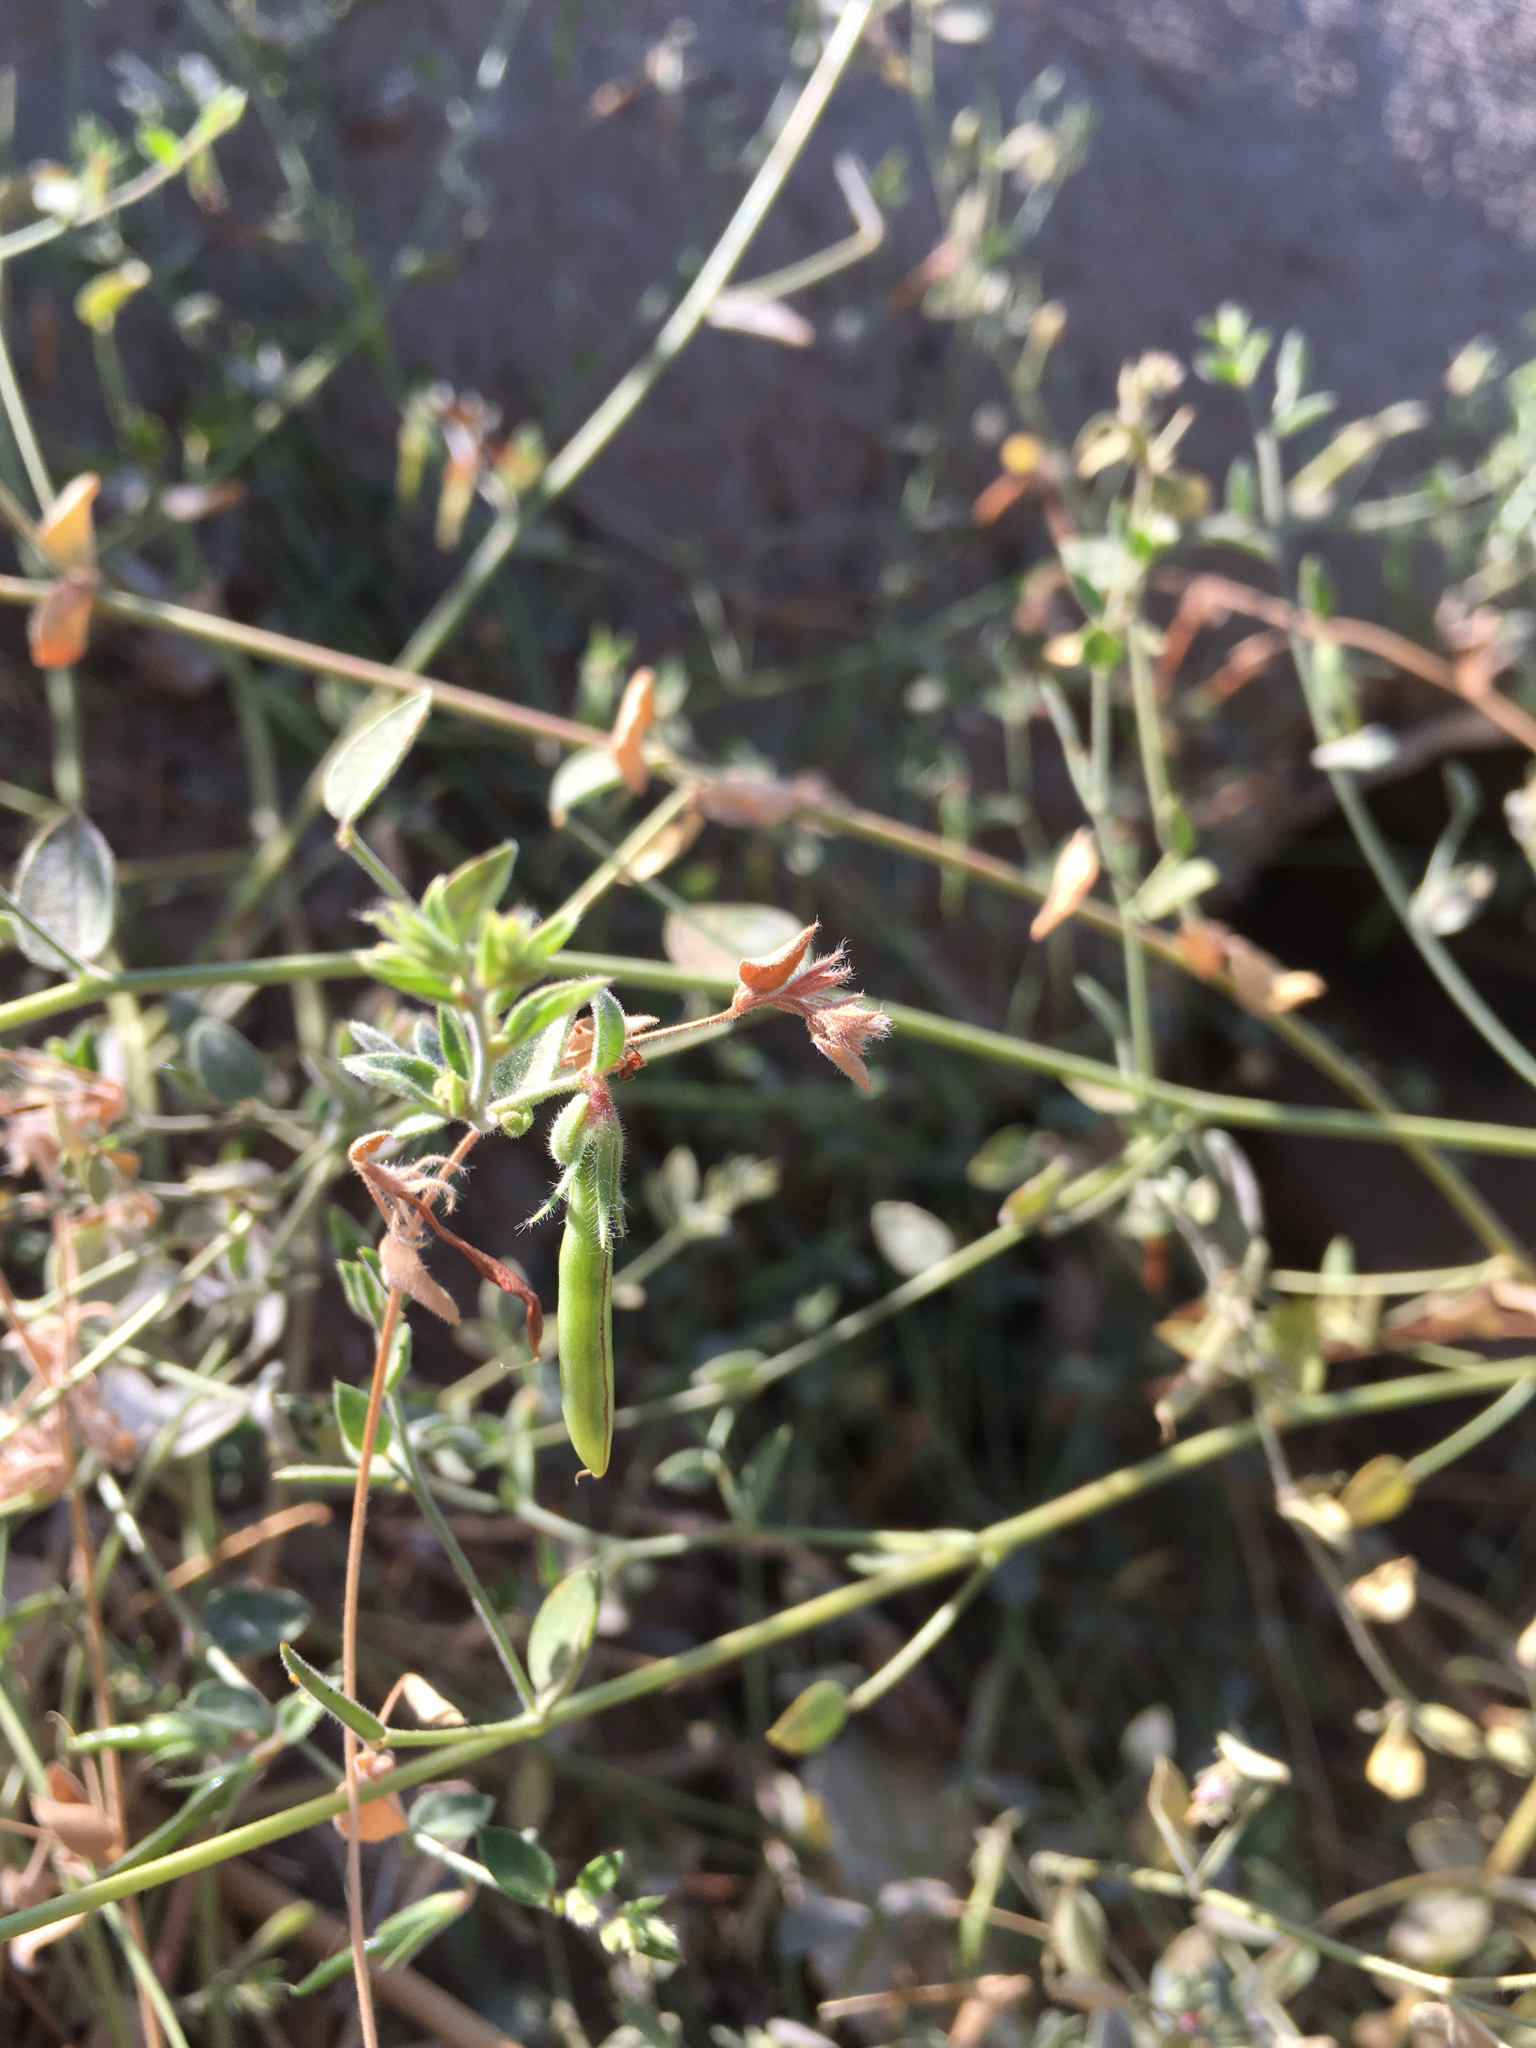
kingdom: Plantae
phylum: Tracheophyta
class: Magnoliopsida
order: Fabales
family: Fabaceae
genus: Acmispon
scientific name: Acmispon americanus
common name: American bird's-foot trefoil
